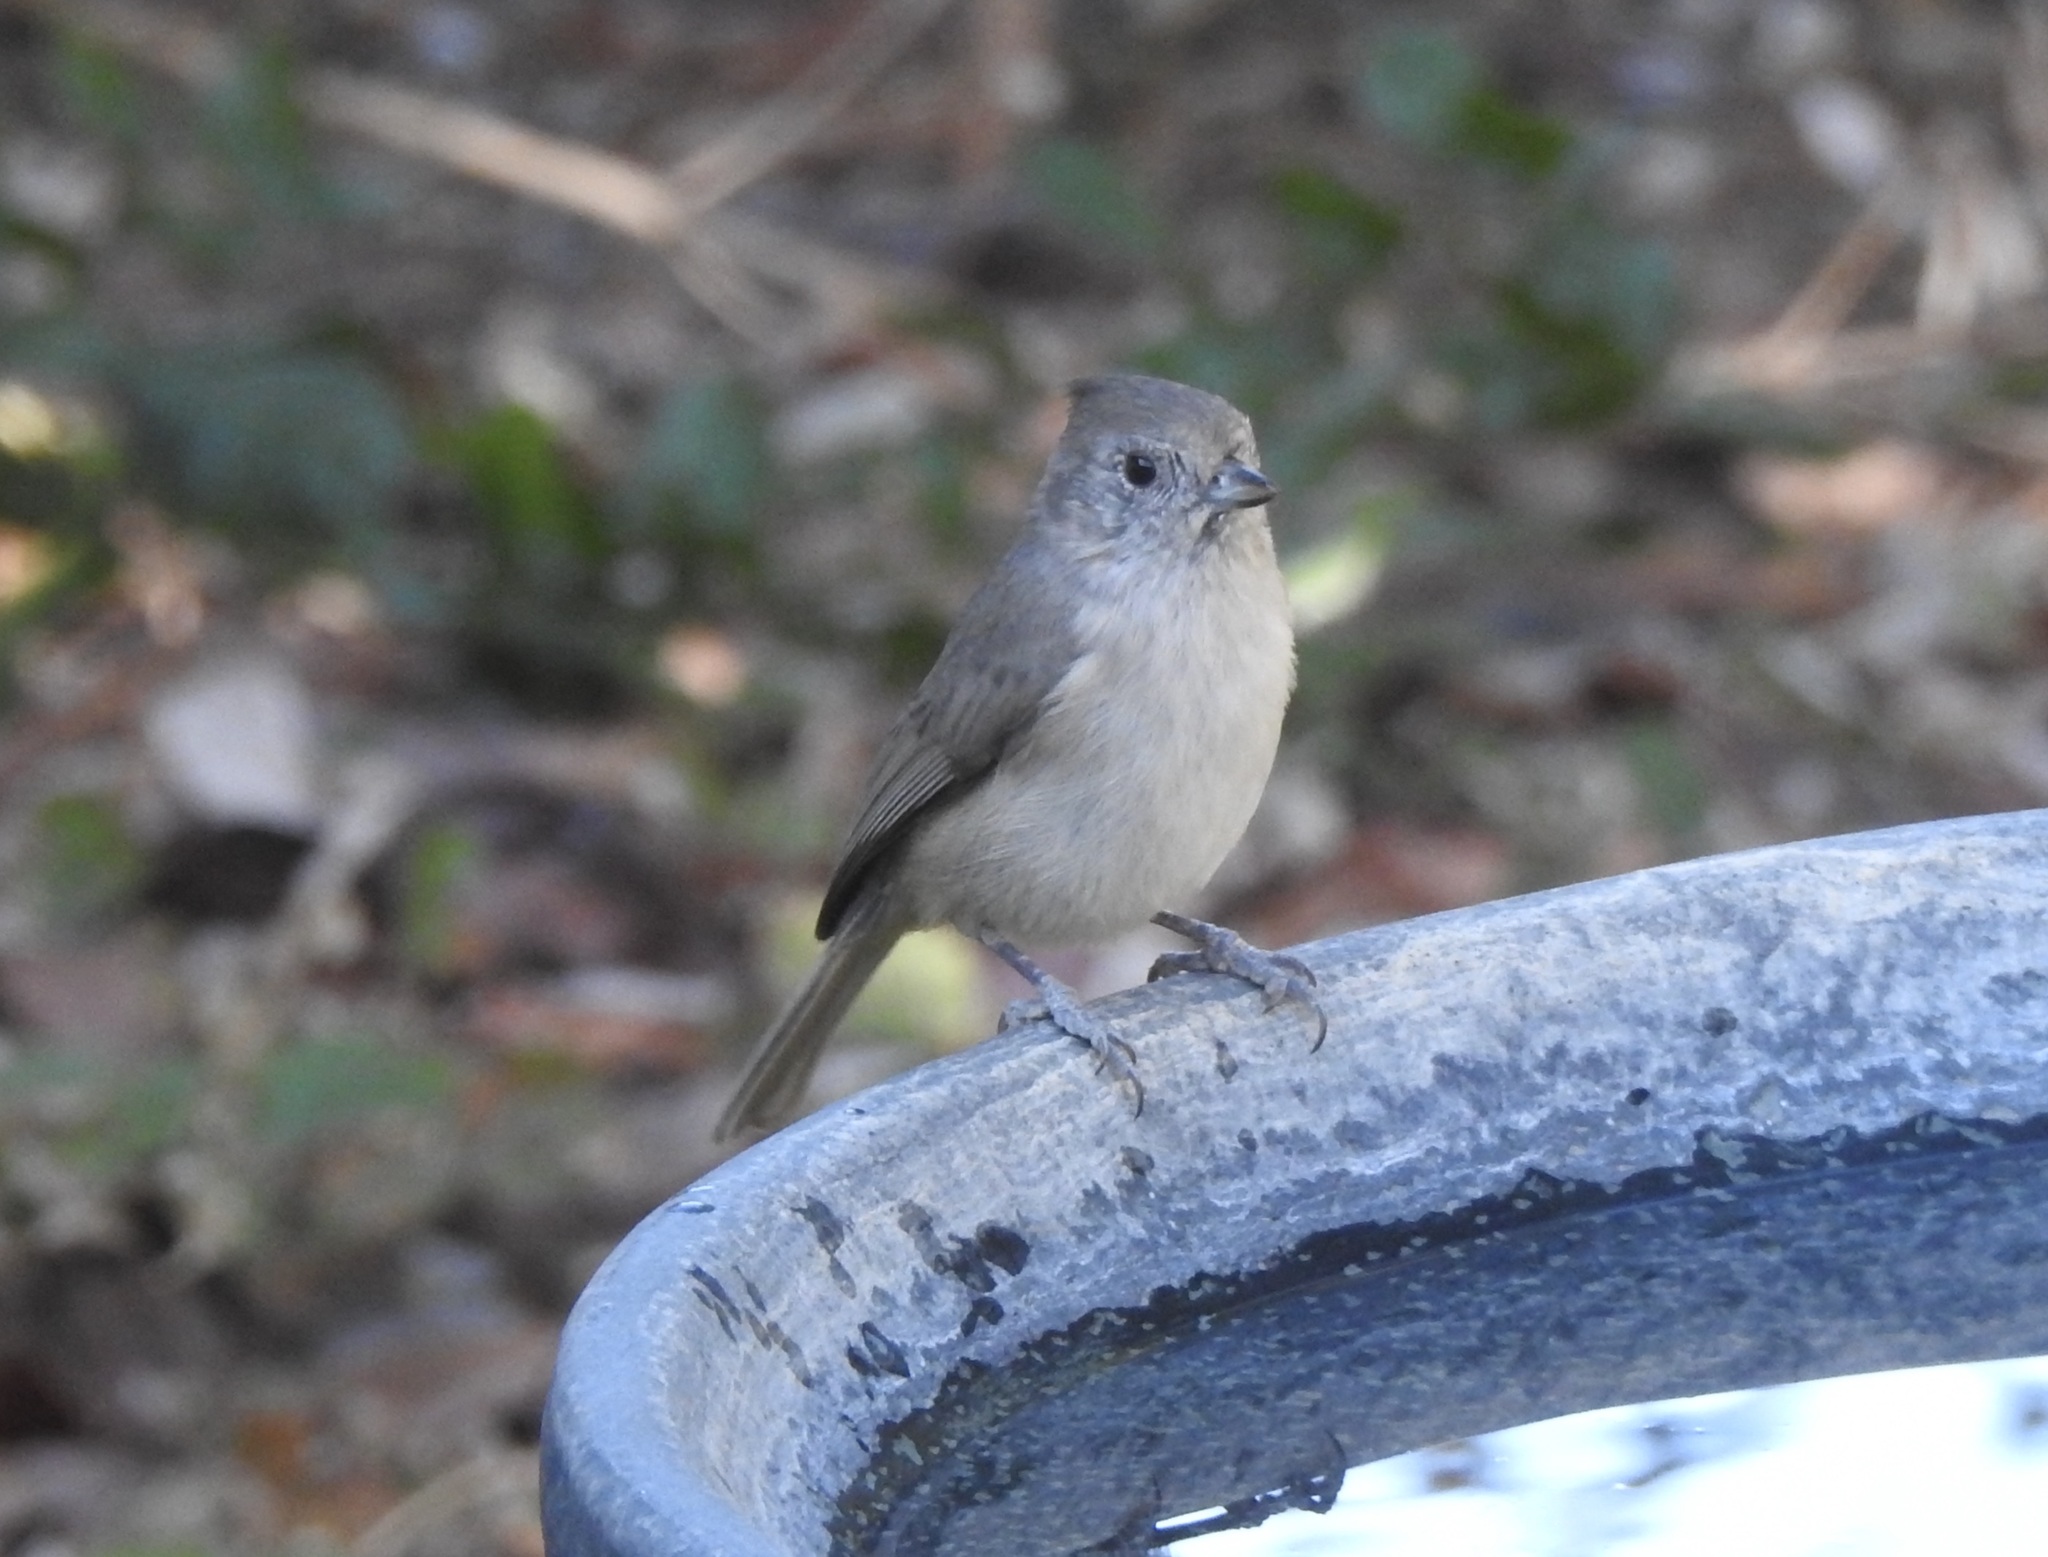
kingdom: Animalia
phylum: Chordata
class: Aves
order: Passeriformes
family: Paridae
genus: Baeolophus
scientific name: Baeolophus inornatus
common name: Oak titmouse
